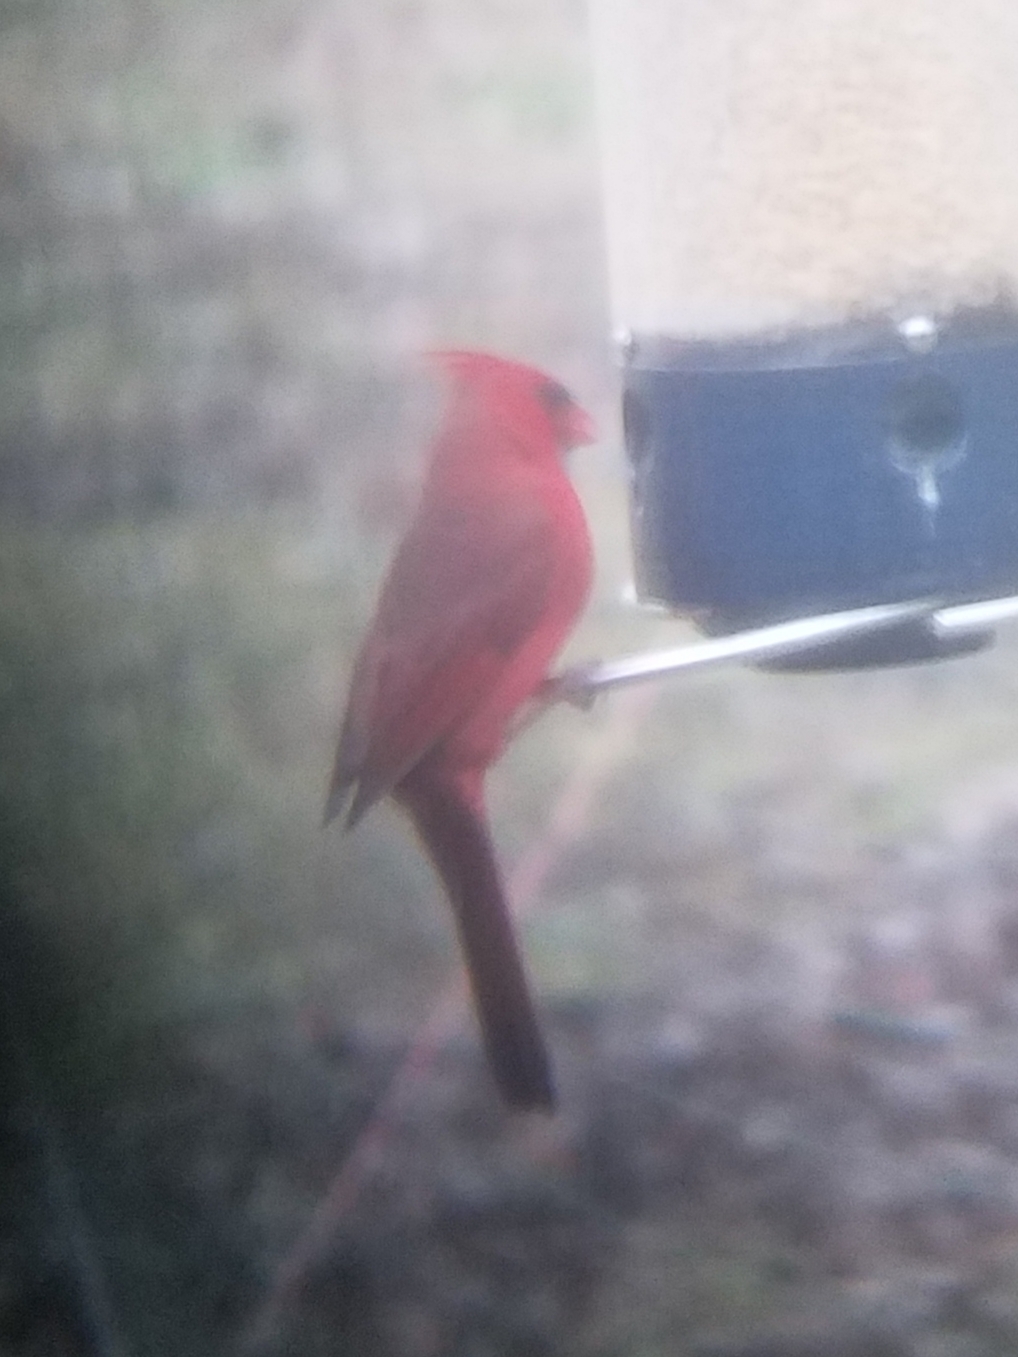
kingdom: Animalia
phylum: Chordata
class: Aves
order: Passeriformes
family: Cardinalidae
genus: Cardinalis
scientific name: Cardinalis cardinalis
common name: Northern cardinal
